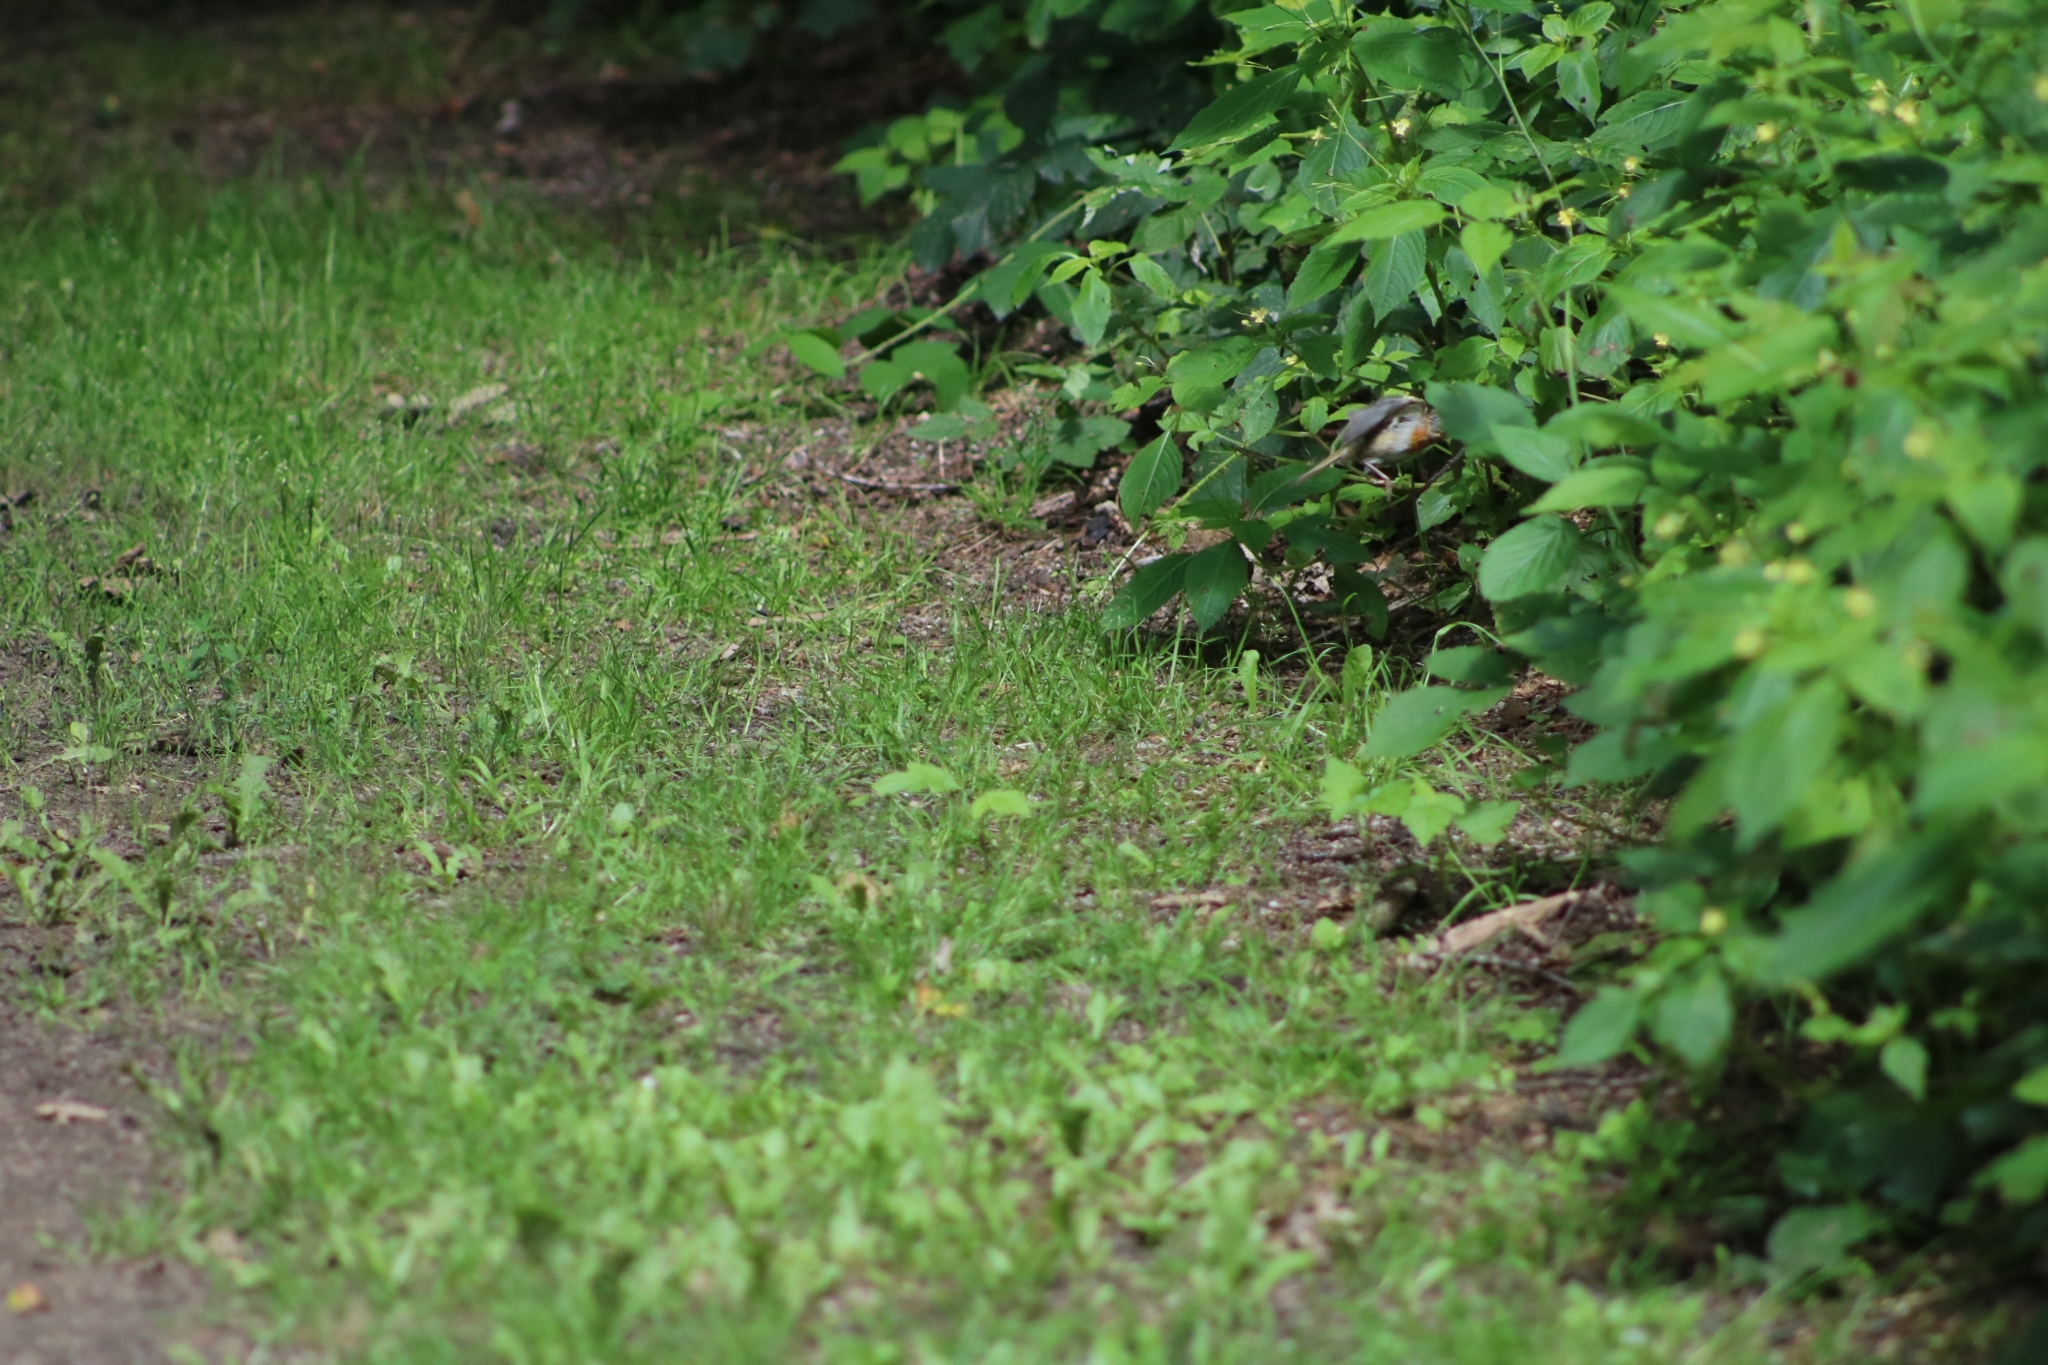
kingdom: Animalia
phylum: Chordata
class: Aves
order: Passeriformes
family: Muscicapidae
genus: Erithacus
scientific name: Erithacus rubecula
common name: European robin
